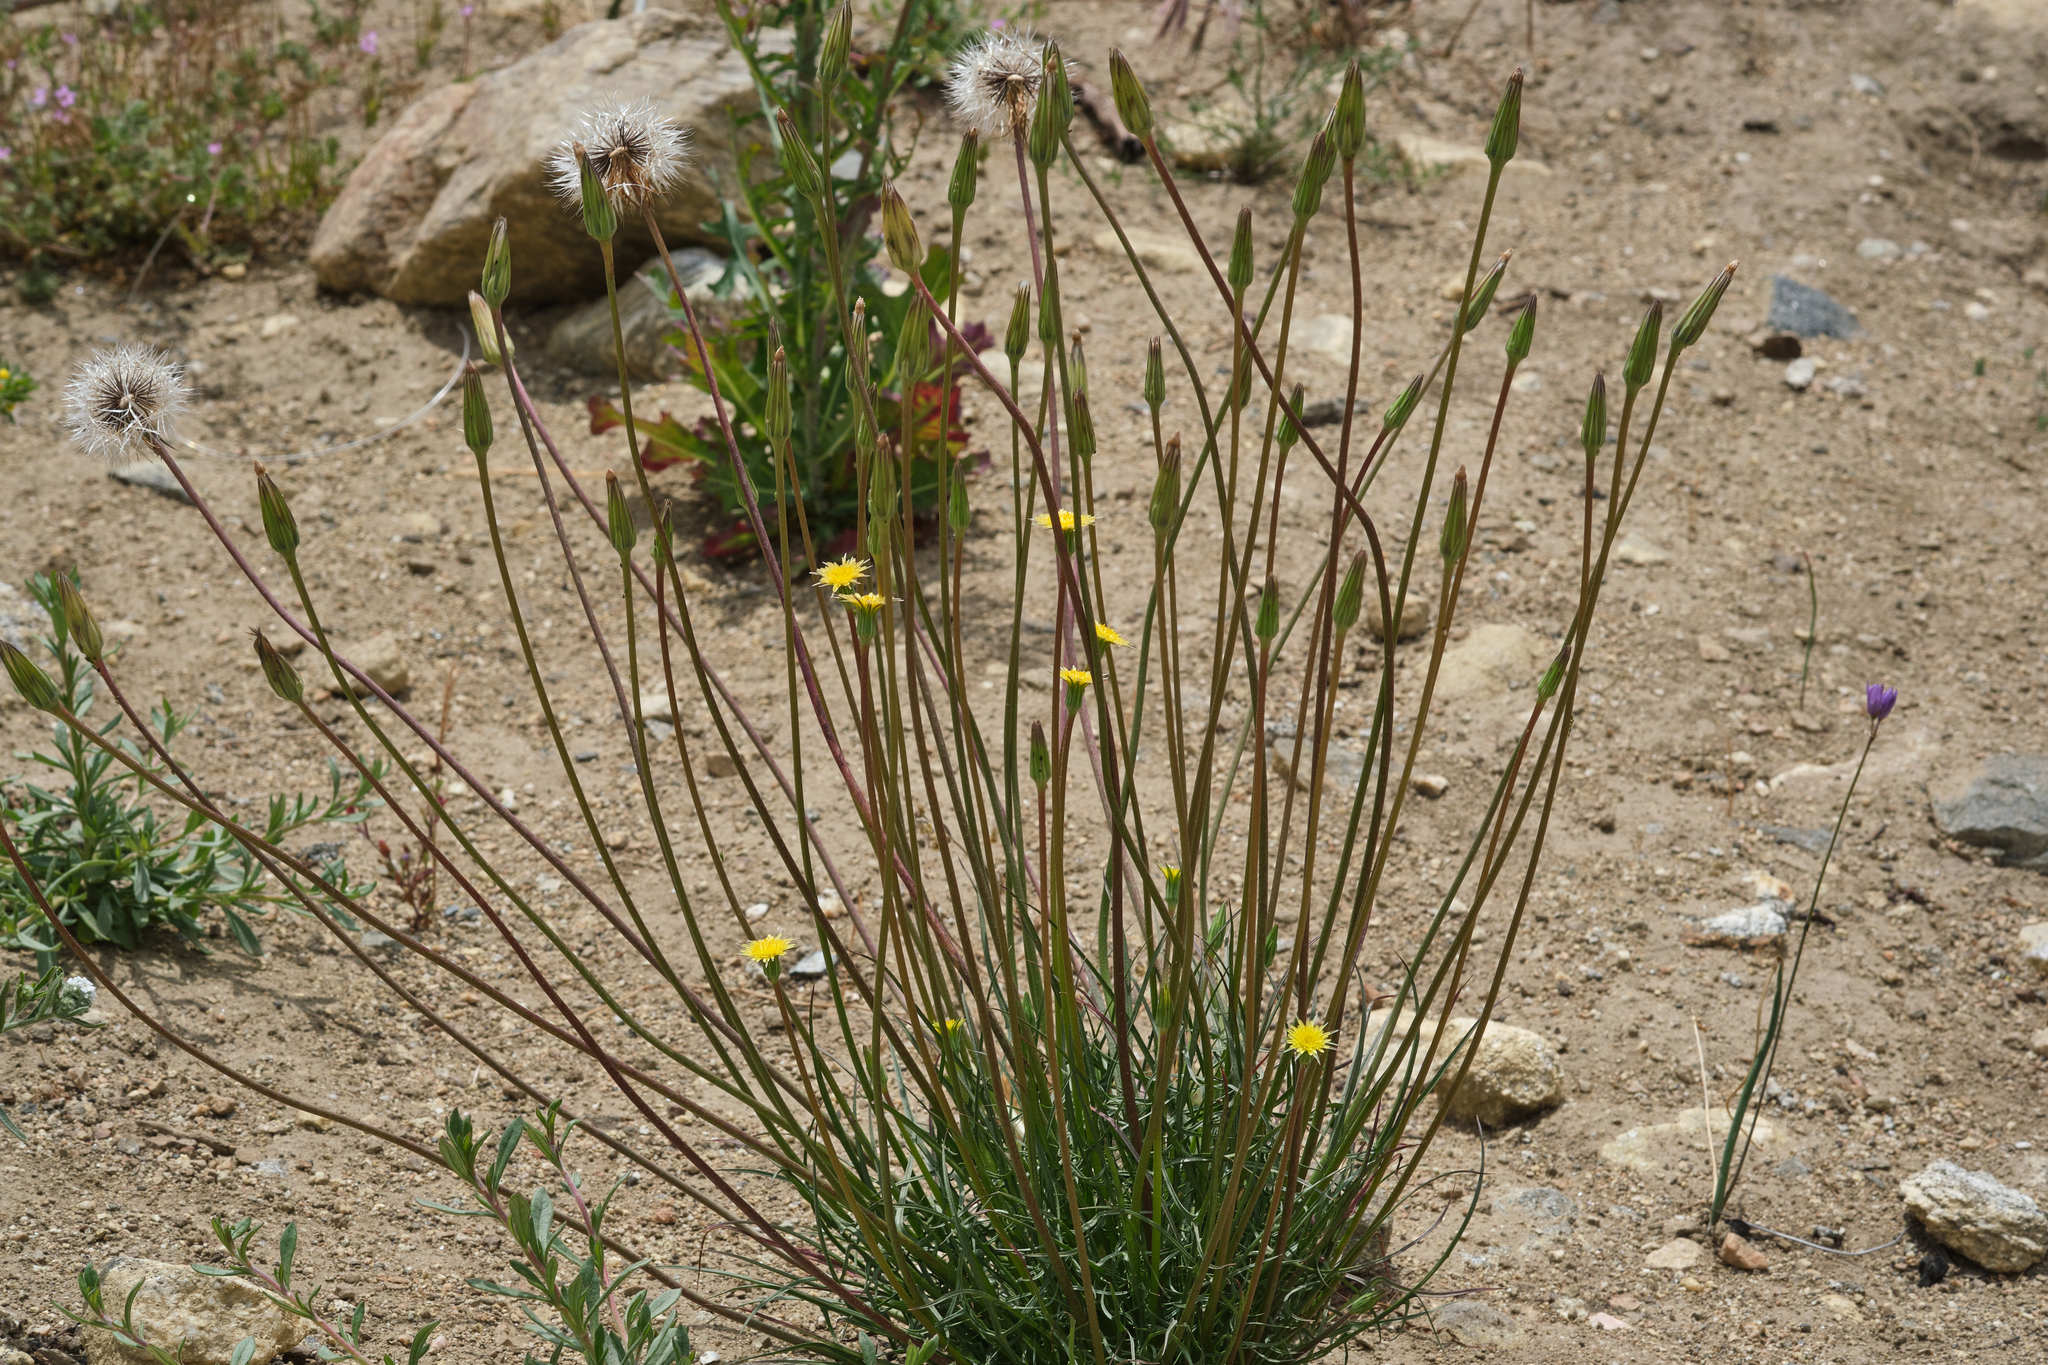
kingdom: Plantae
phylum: Tracheophyta
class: Magnoliopsida
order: Asterales
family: Asteraceae
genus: Microseris
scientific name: Microseris lindleyi
